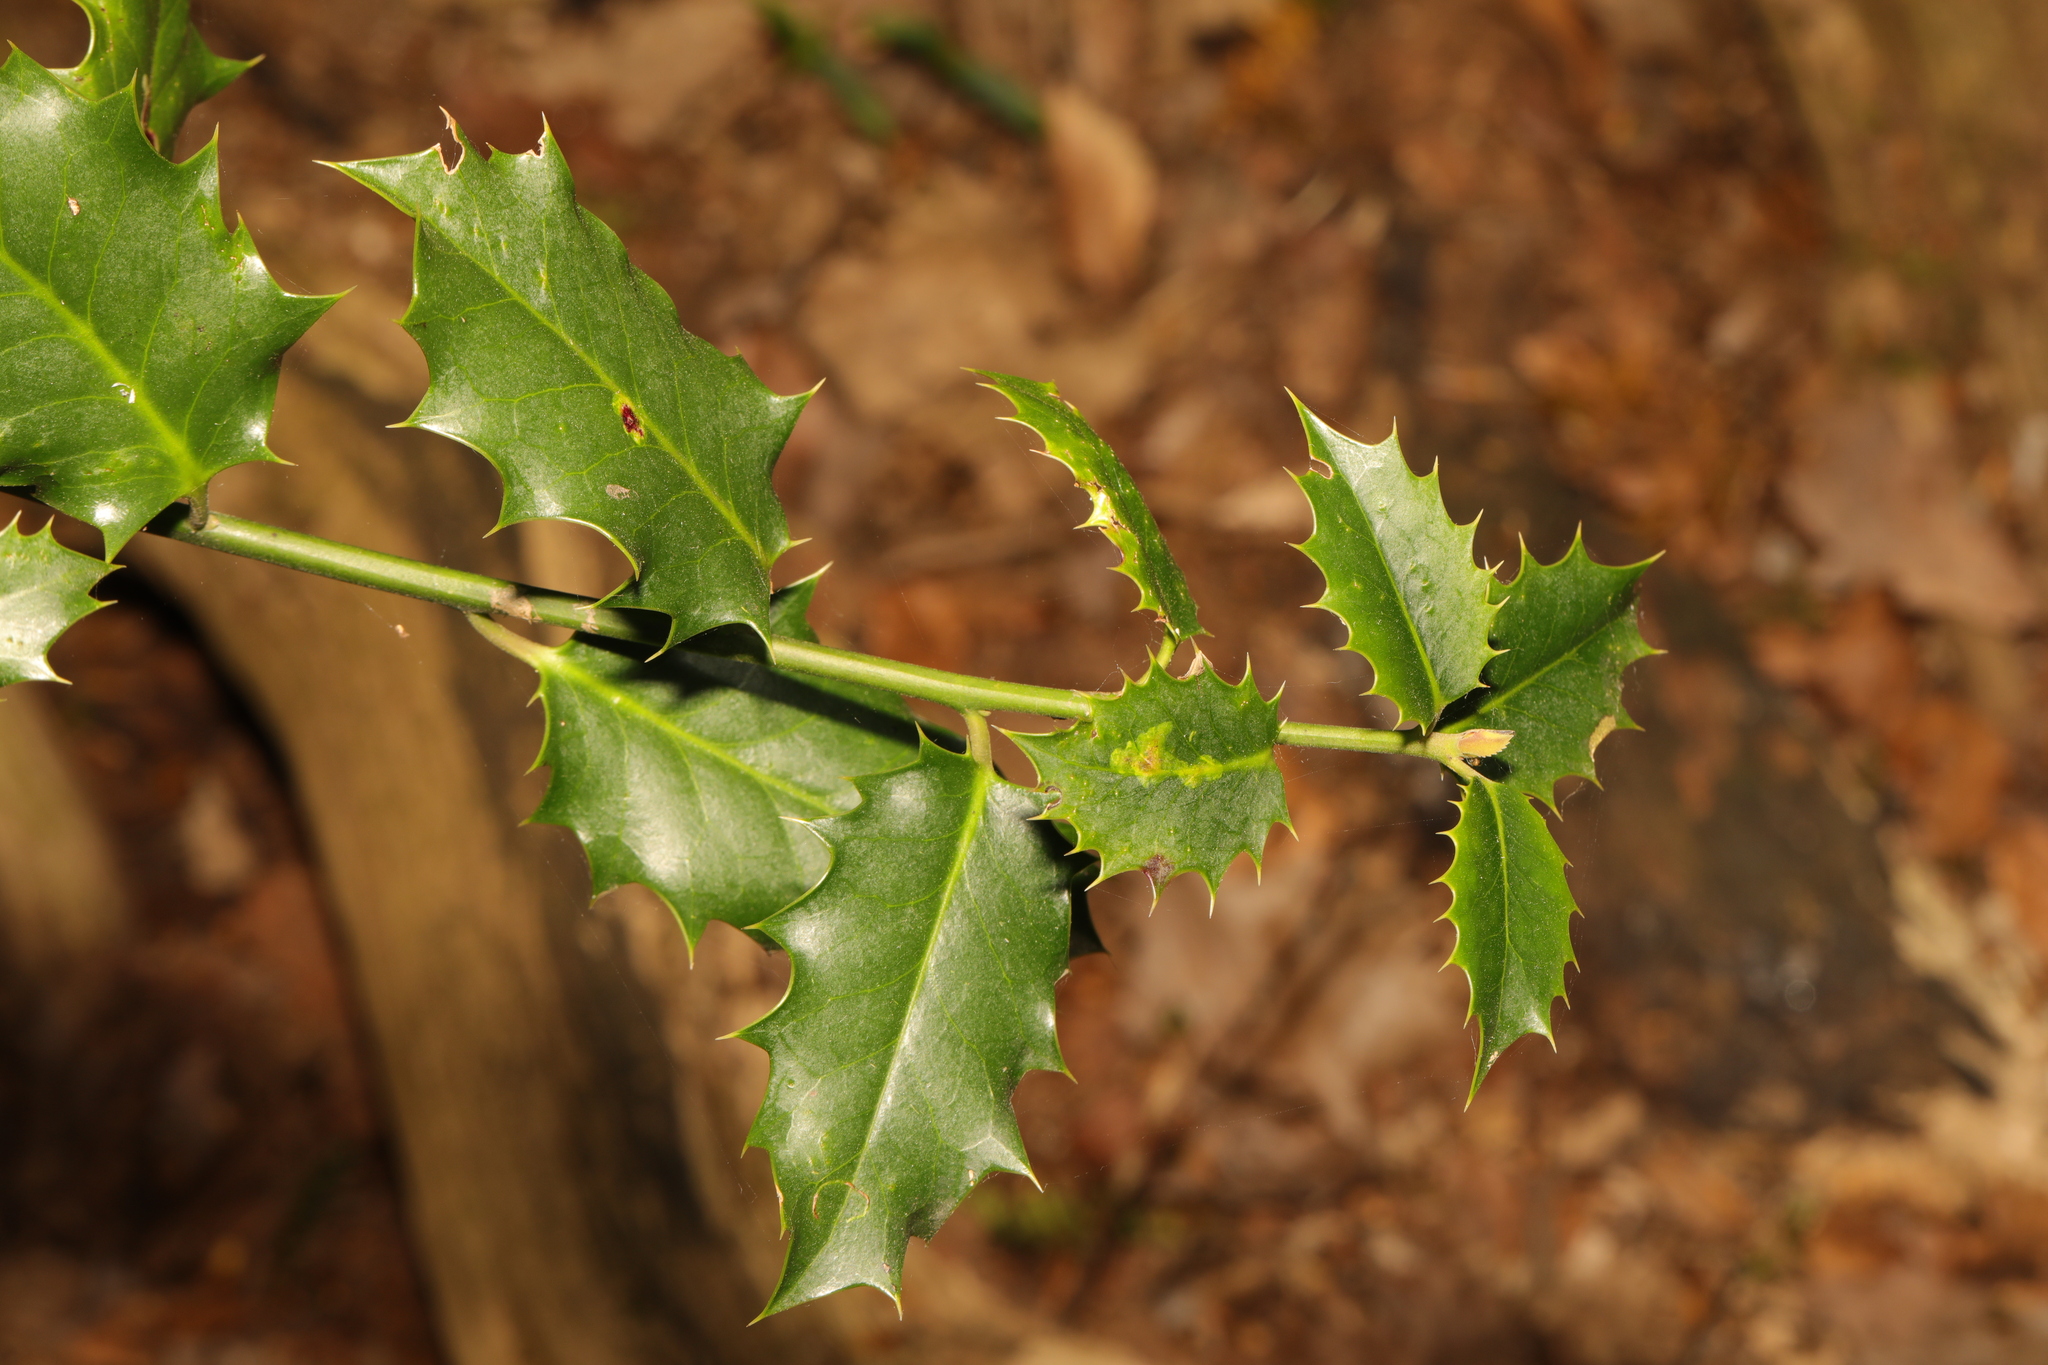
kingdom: Plantae
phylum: Tracheophyta
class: Magnoliopsida
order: Aquifoliales
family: Aquifoliaceae
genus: Ilex
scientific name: Ilex aquifolium
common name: English holly
